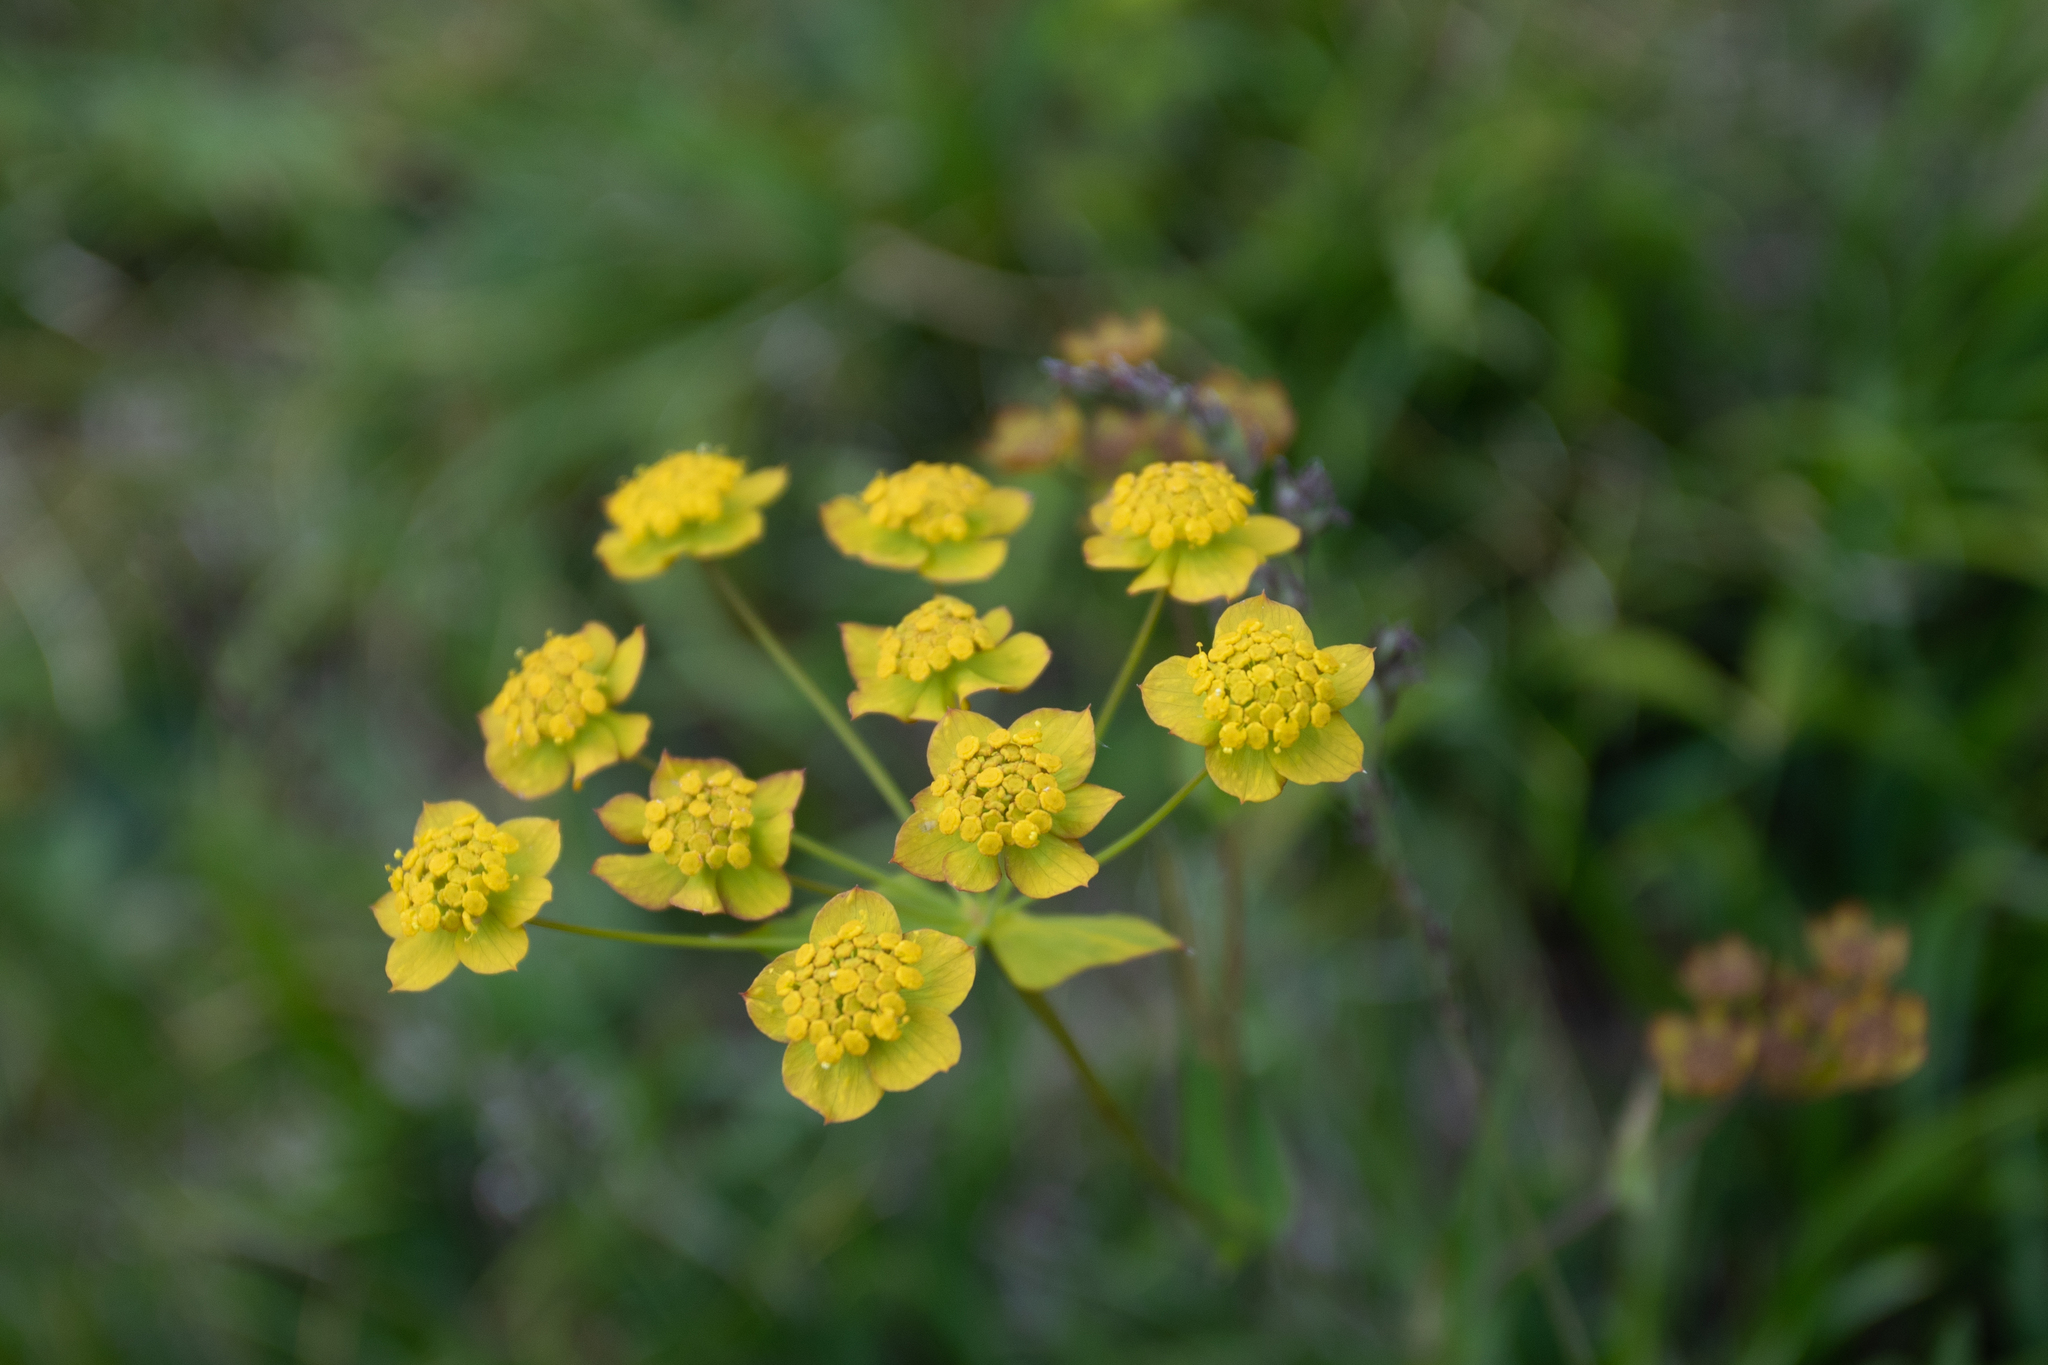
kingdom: Plantae
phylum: Tracheophyta
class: Magnoliopsida
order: Apiales
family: Apiaceae
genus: Bupleurum
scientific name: Bupleurum multinerve
